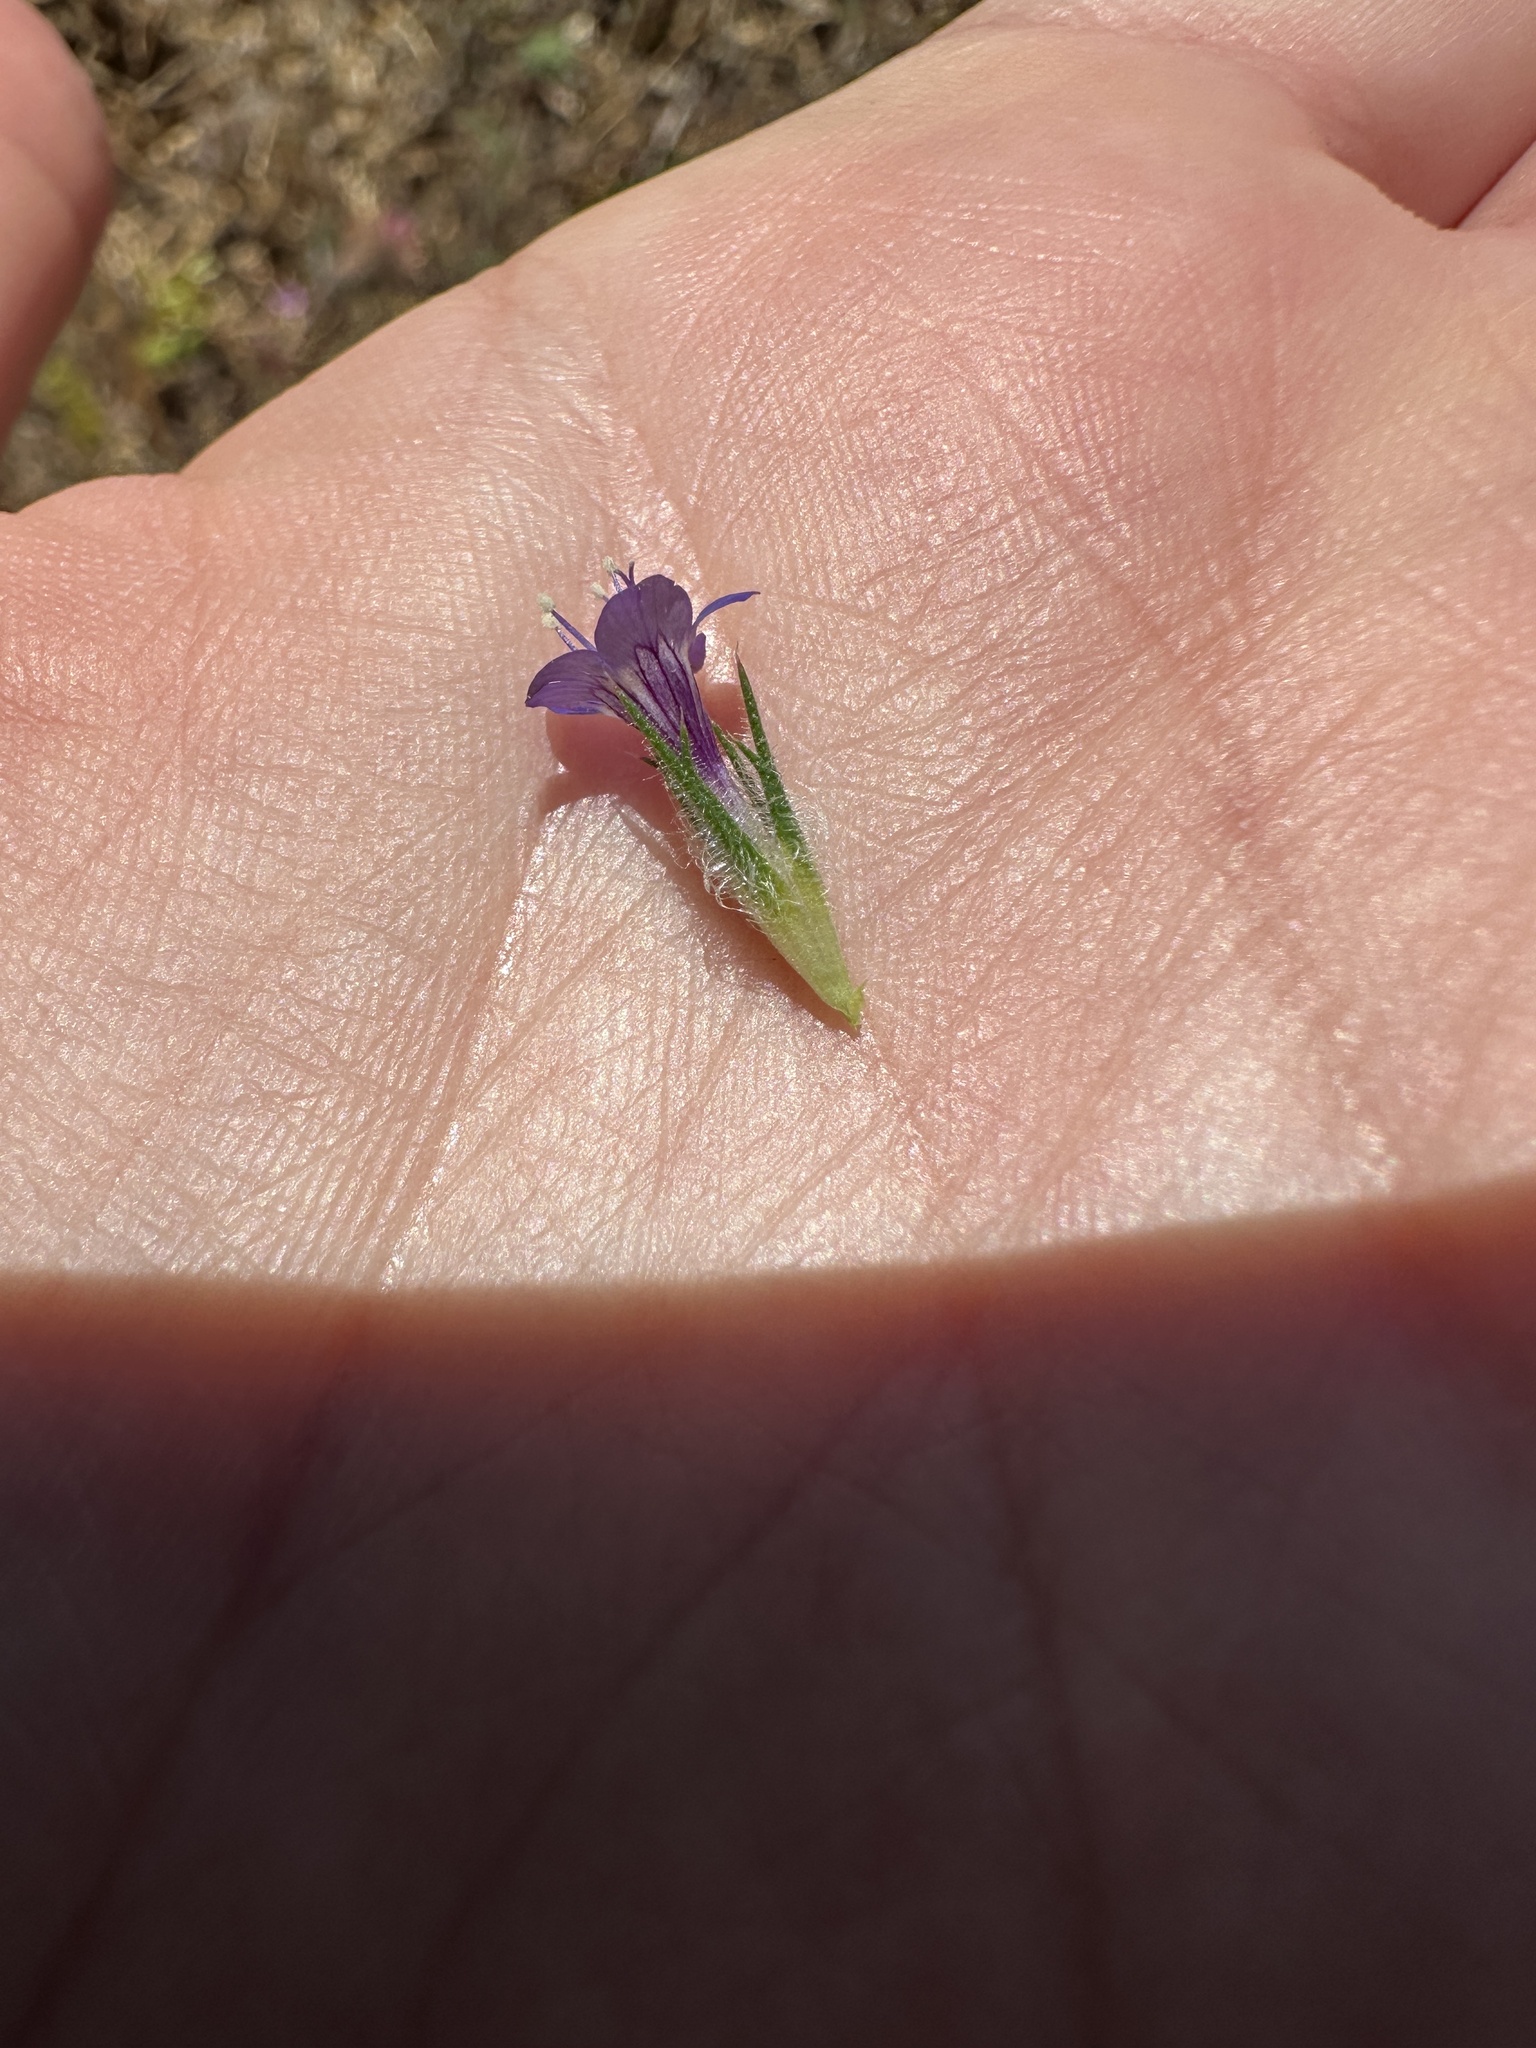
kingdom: Plantae
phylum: Tracheophyta
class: Magnoliopsida
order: Ericales
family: Polemoniaceae
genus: Navarretia
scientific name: Navarretia pubescens
